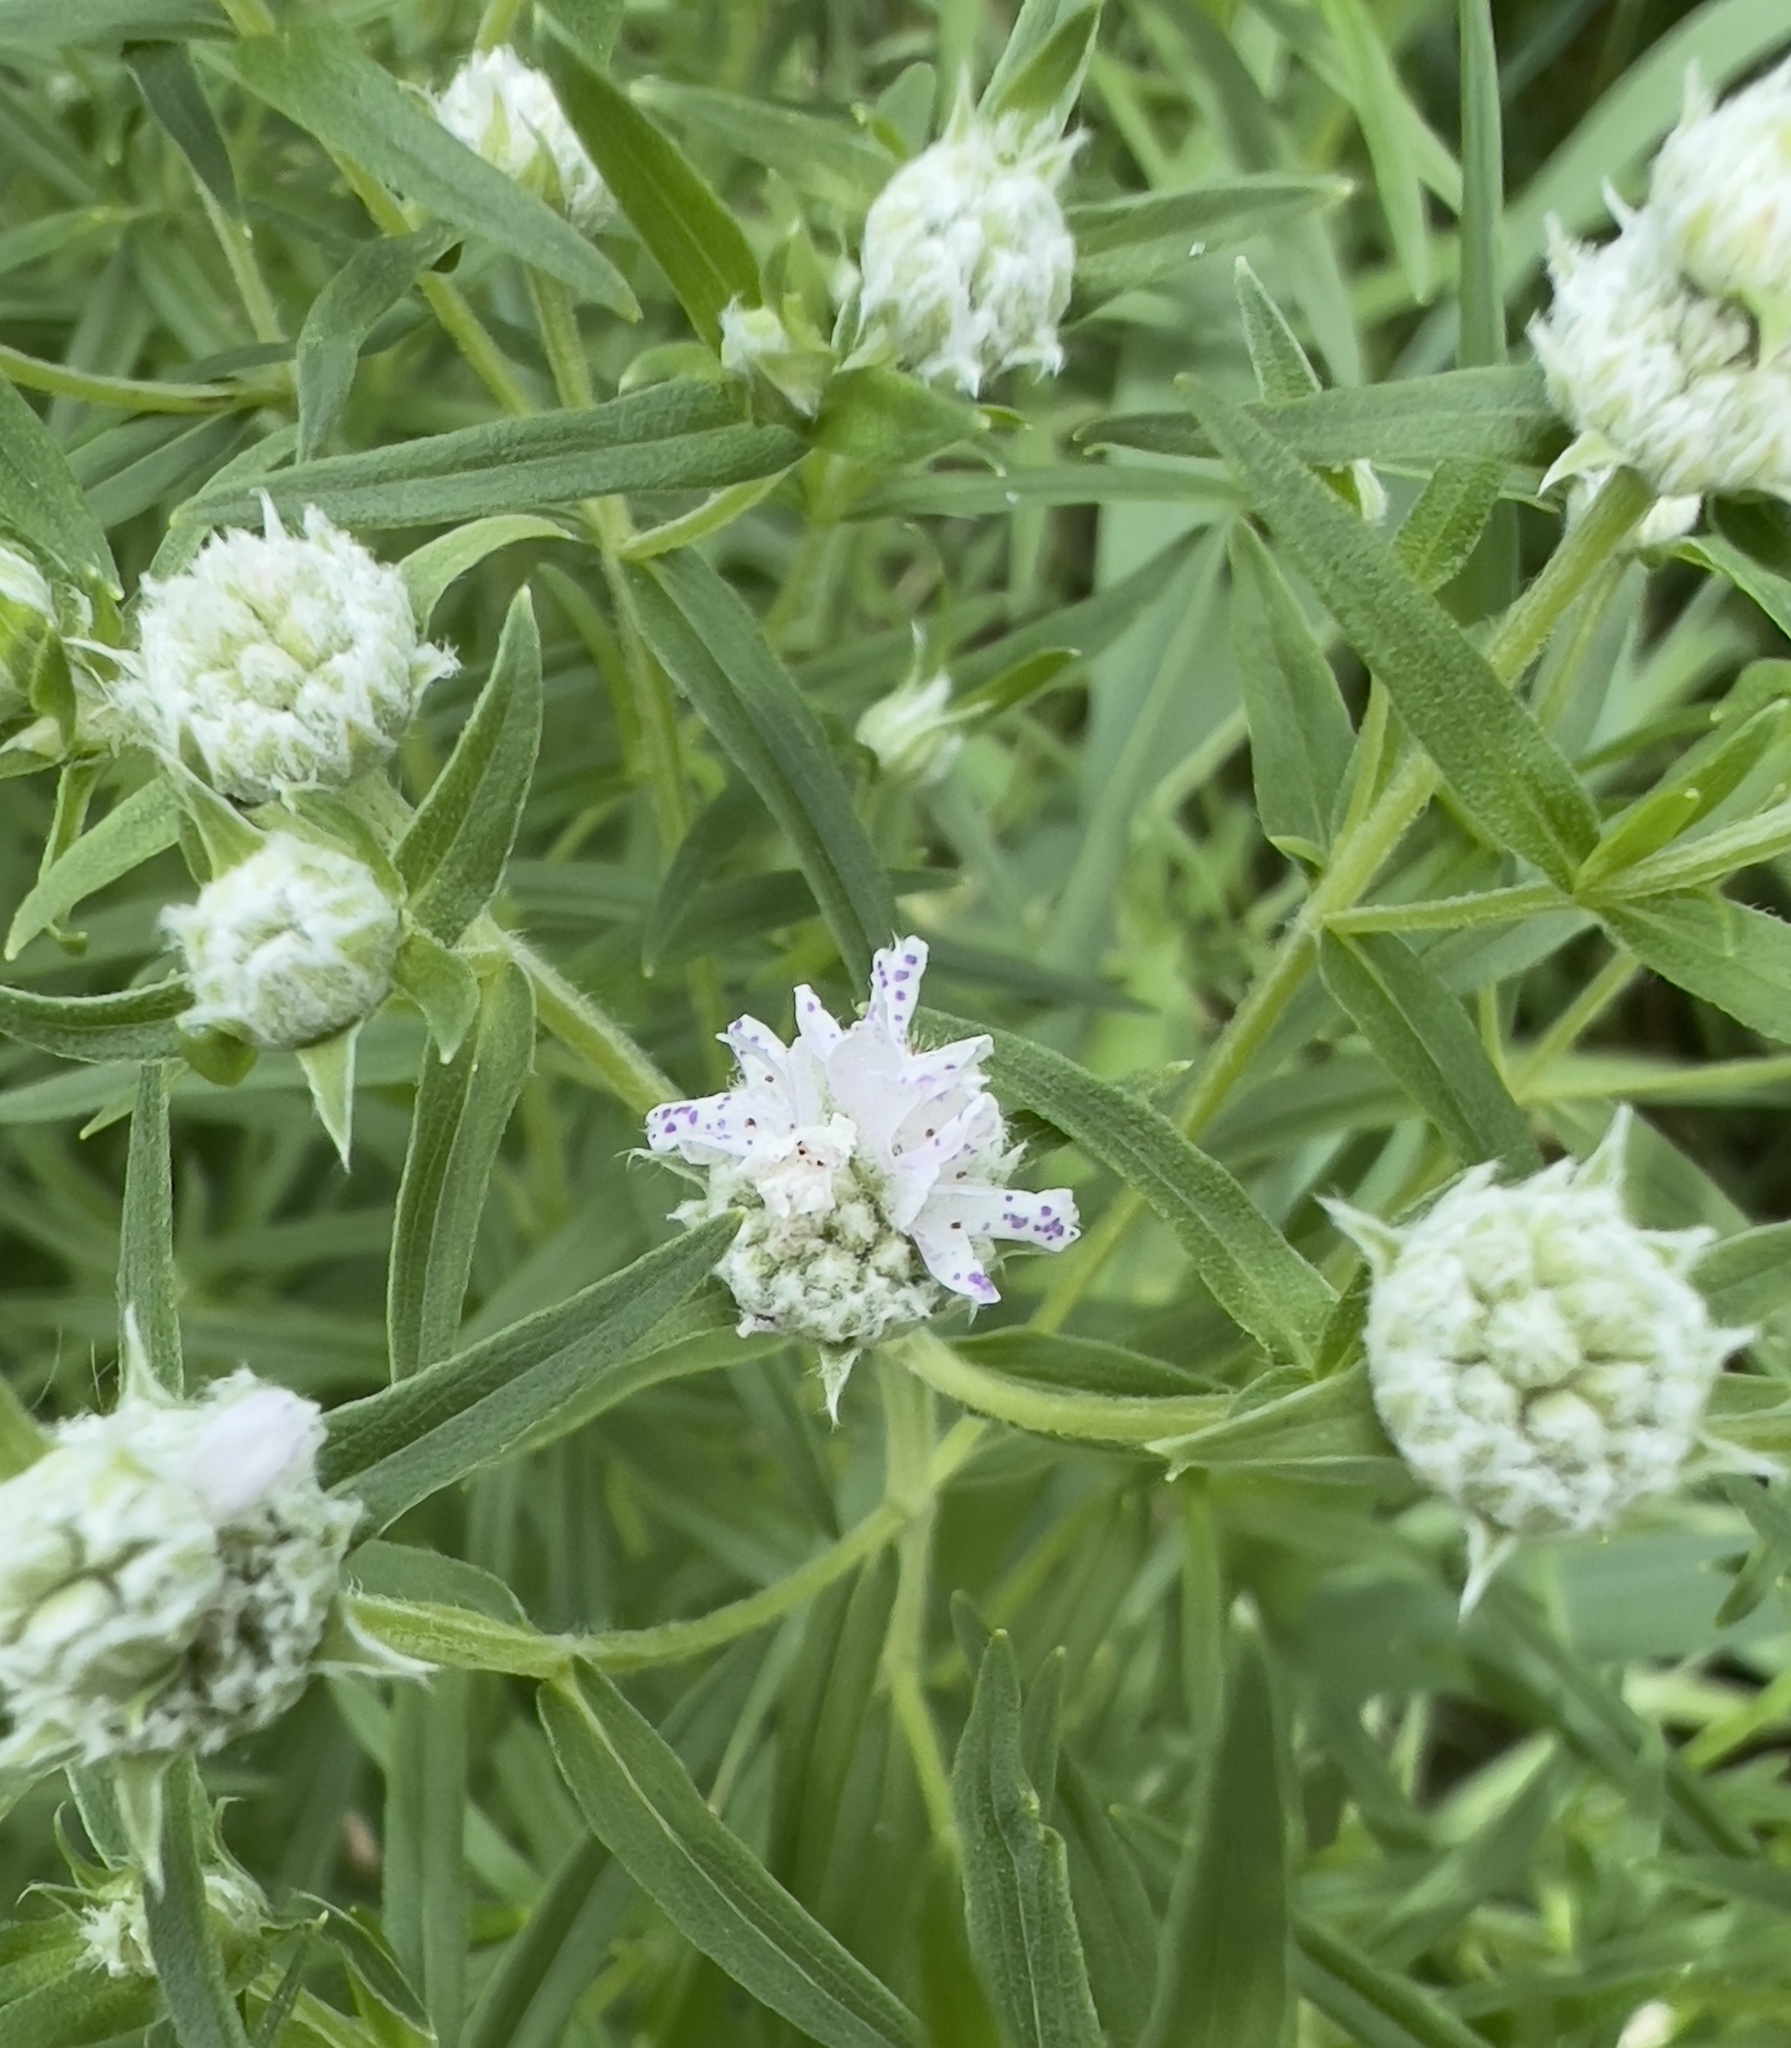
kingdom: Plantae
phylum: Tracheophyta
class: Magnoliopsida
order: Lamiales
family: Lamiaceae
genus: Pycnanthemum
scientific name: Pycnanthemum virginianum
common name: Virginia mountain-mint
